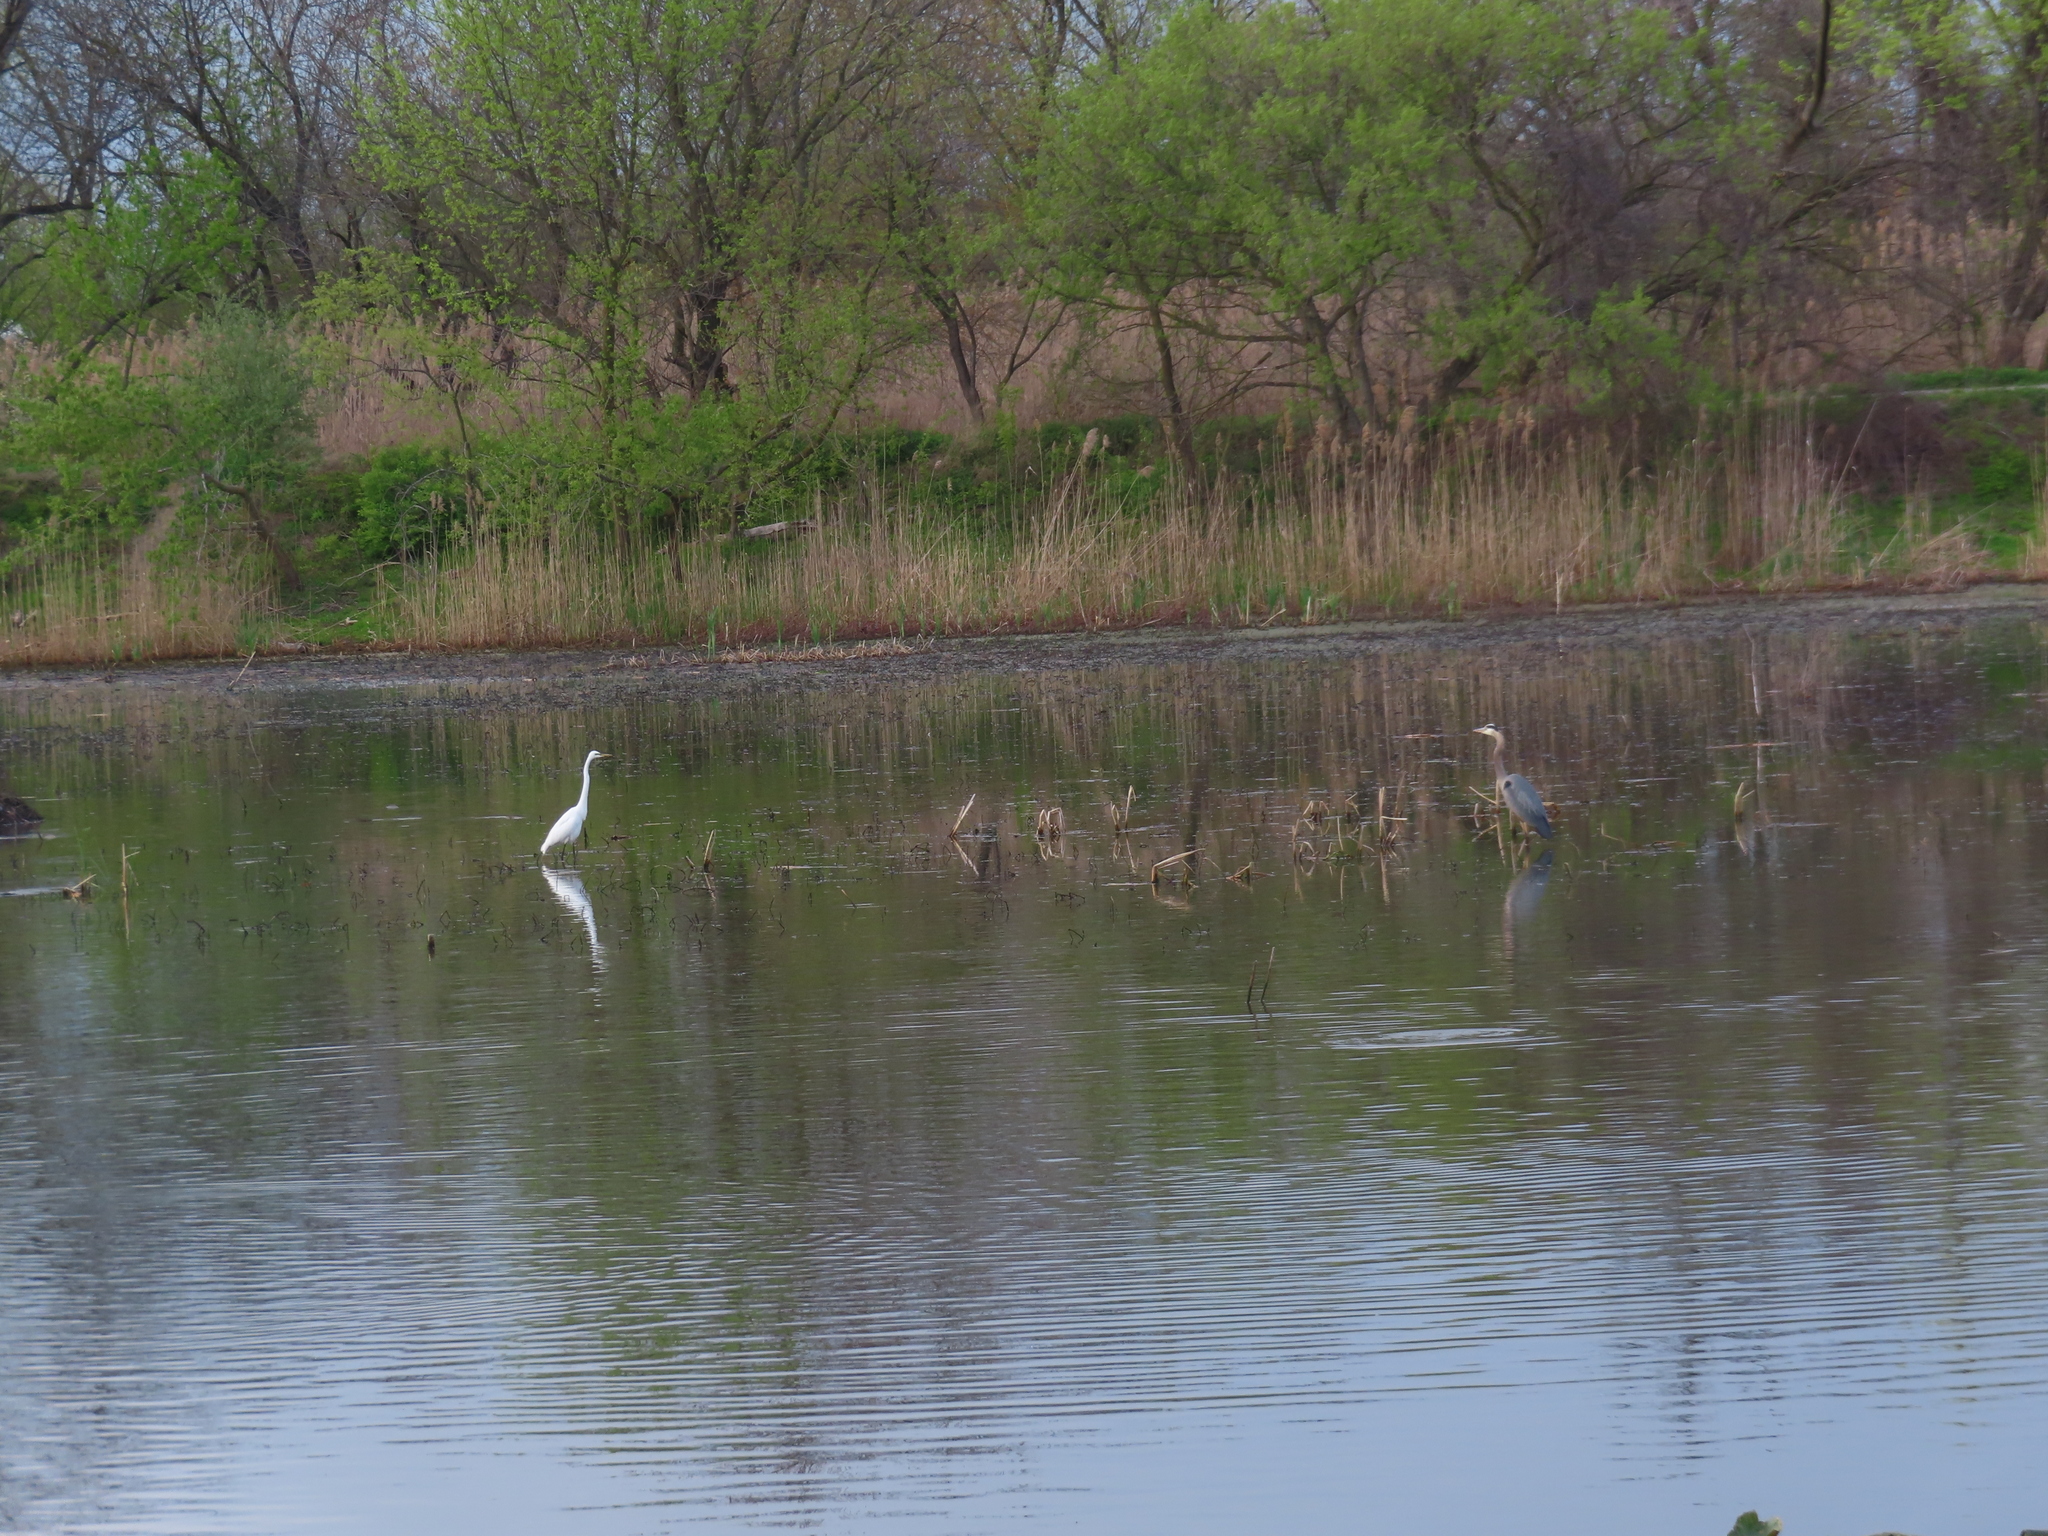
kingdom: Animalia
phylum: Chordata
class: Aves
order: Pelecaniformes
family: Ardeidae
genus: Ardea
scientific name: Ardea herodias
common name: Great blue heron
